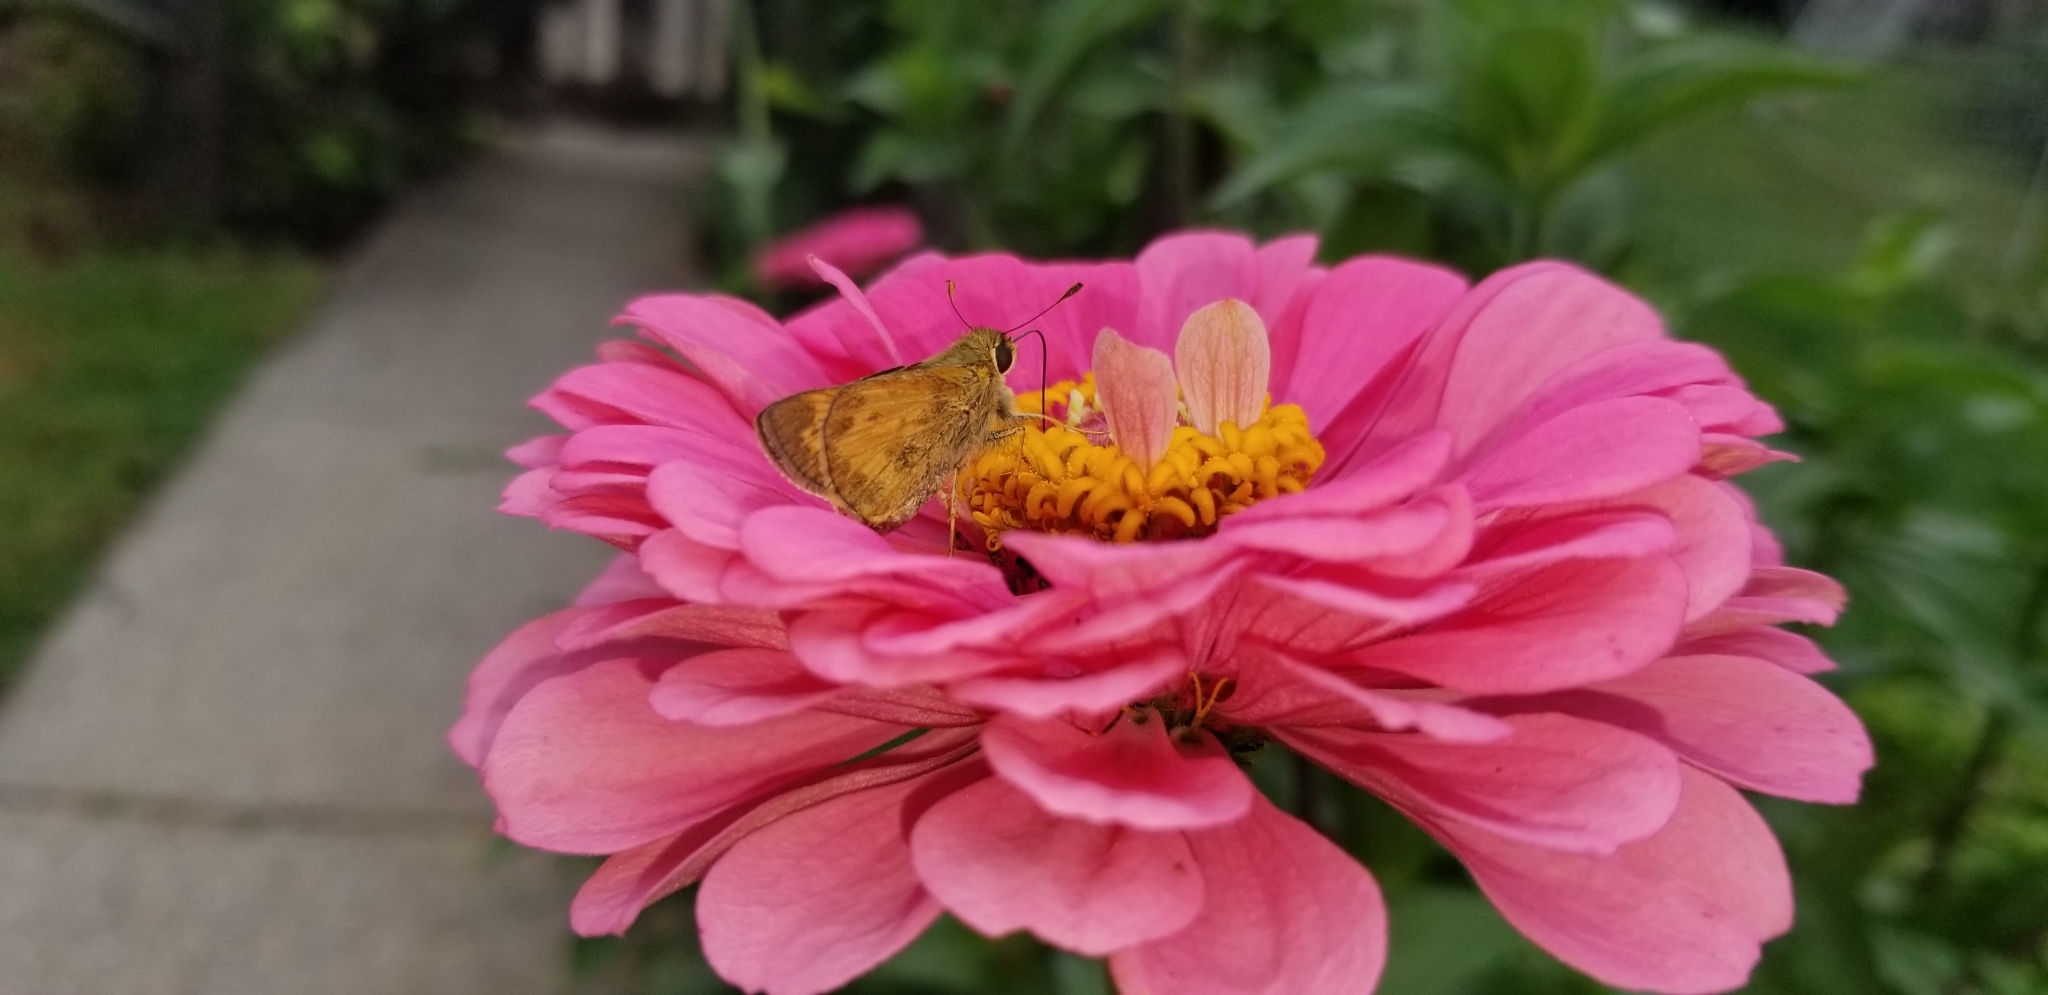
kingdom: Animalia
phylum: Arthropoda
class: Insecta
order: Lepidoptera
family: Hesperiidae
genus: Atalopedes
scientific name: Atalopedes
